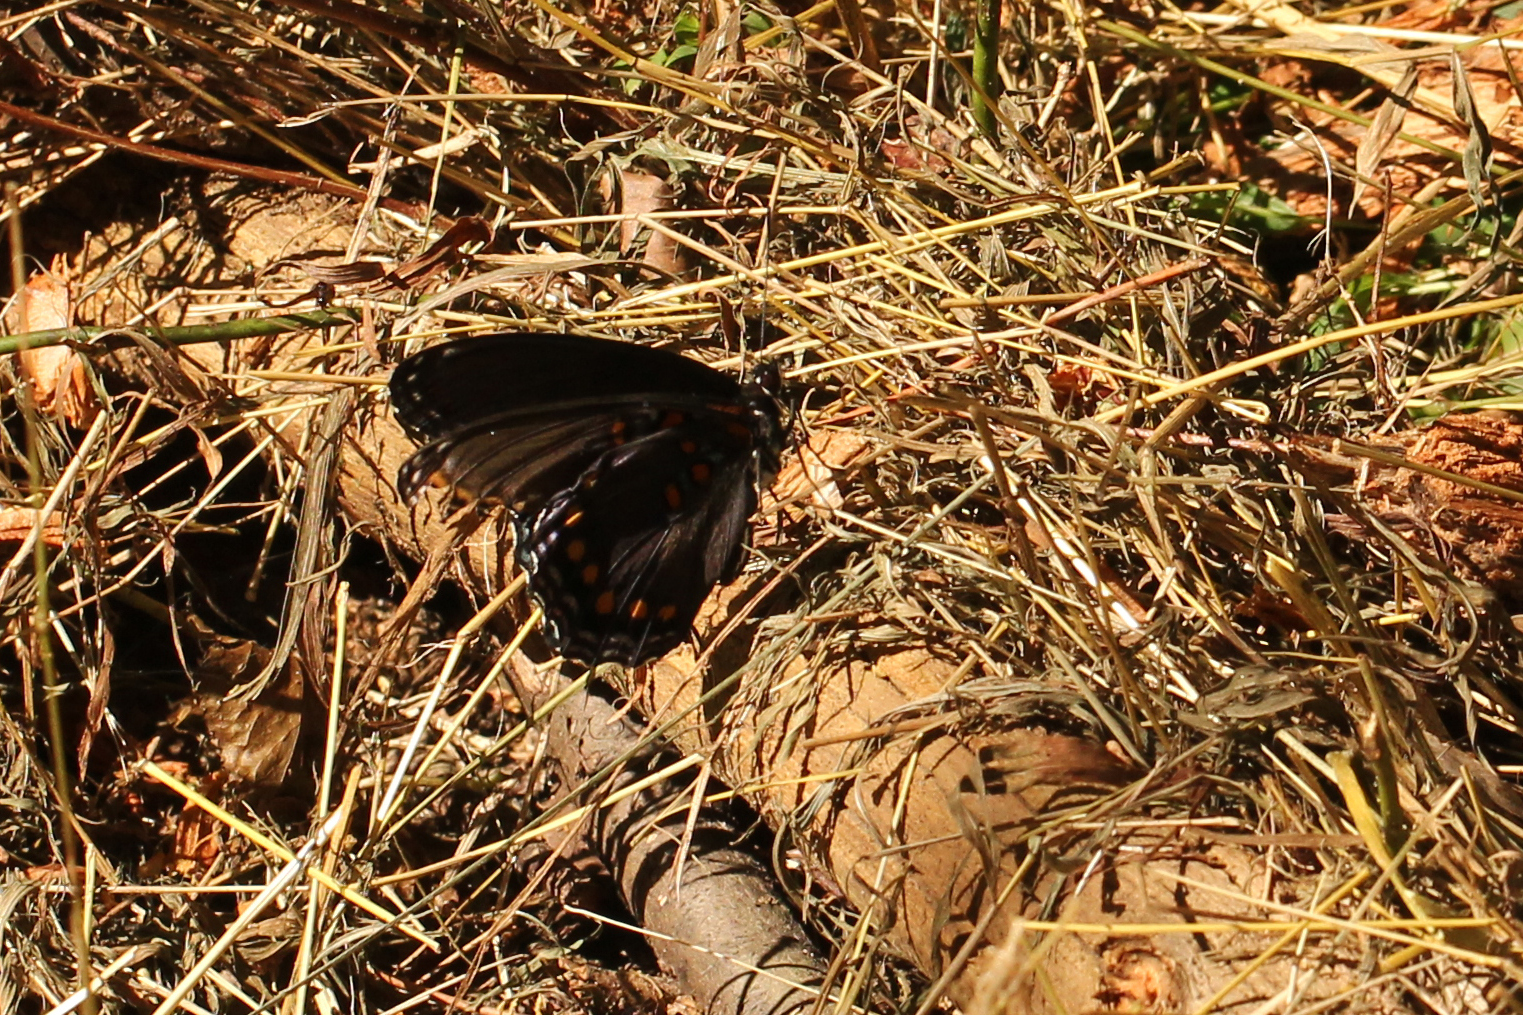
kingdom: Animalia
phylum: Arthropoda
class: Insecta
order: Lepidoptera
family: Nymphalidae
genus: Limenitis
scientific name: Limenitis astyanax
